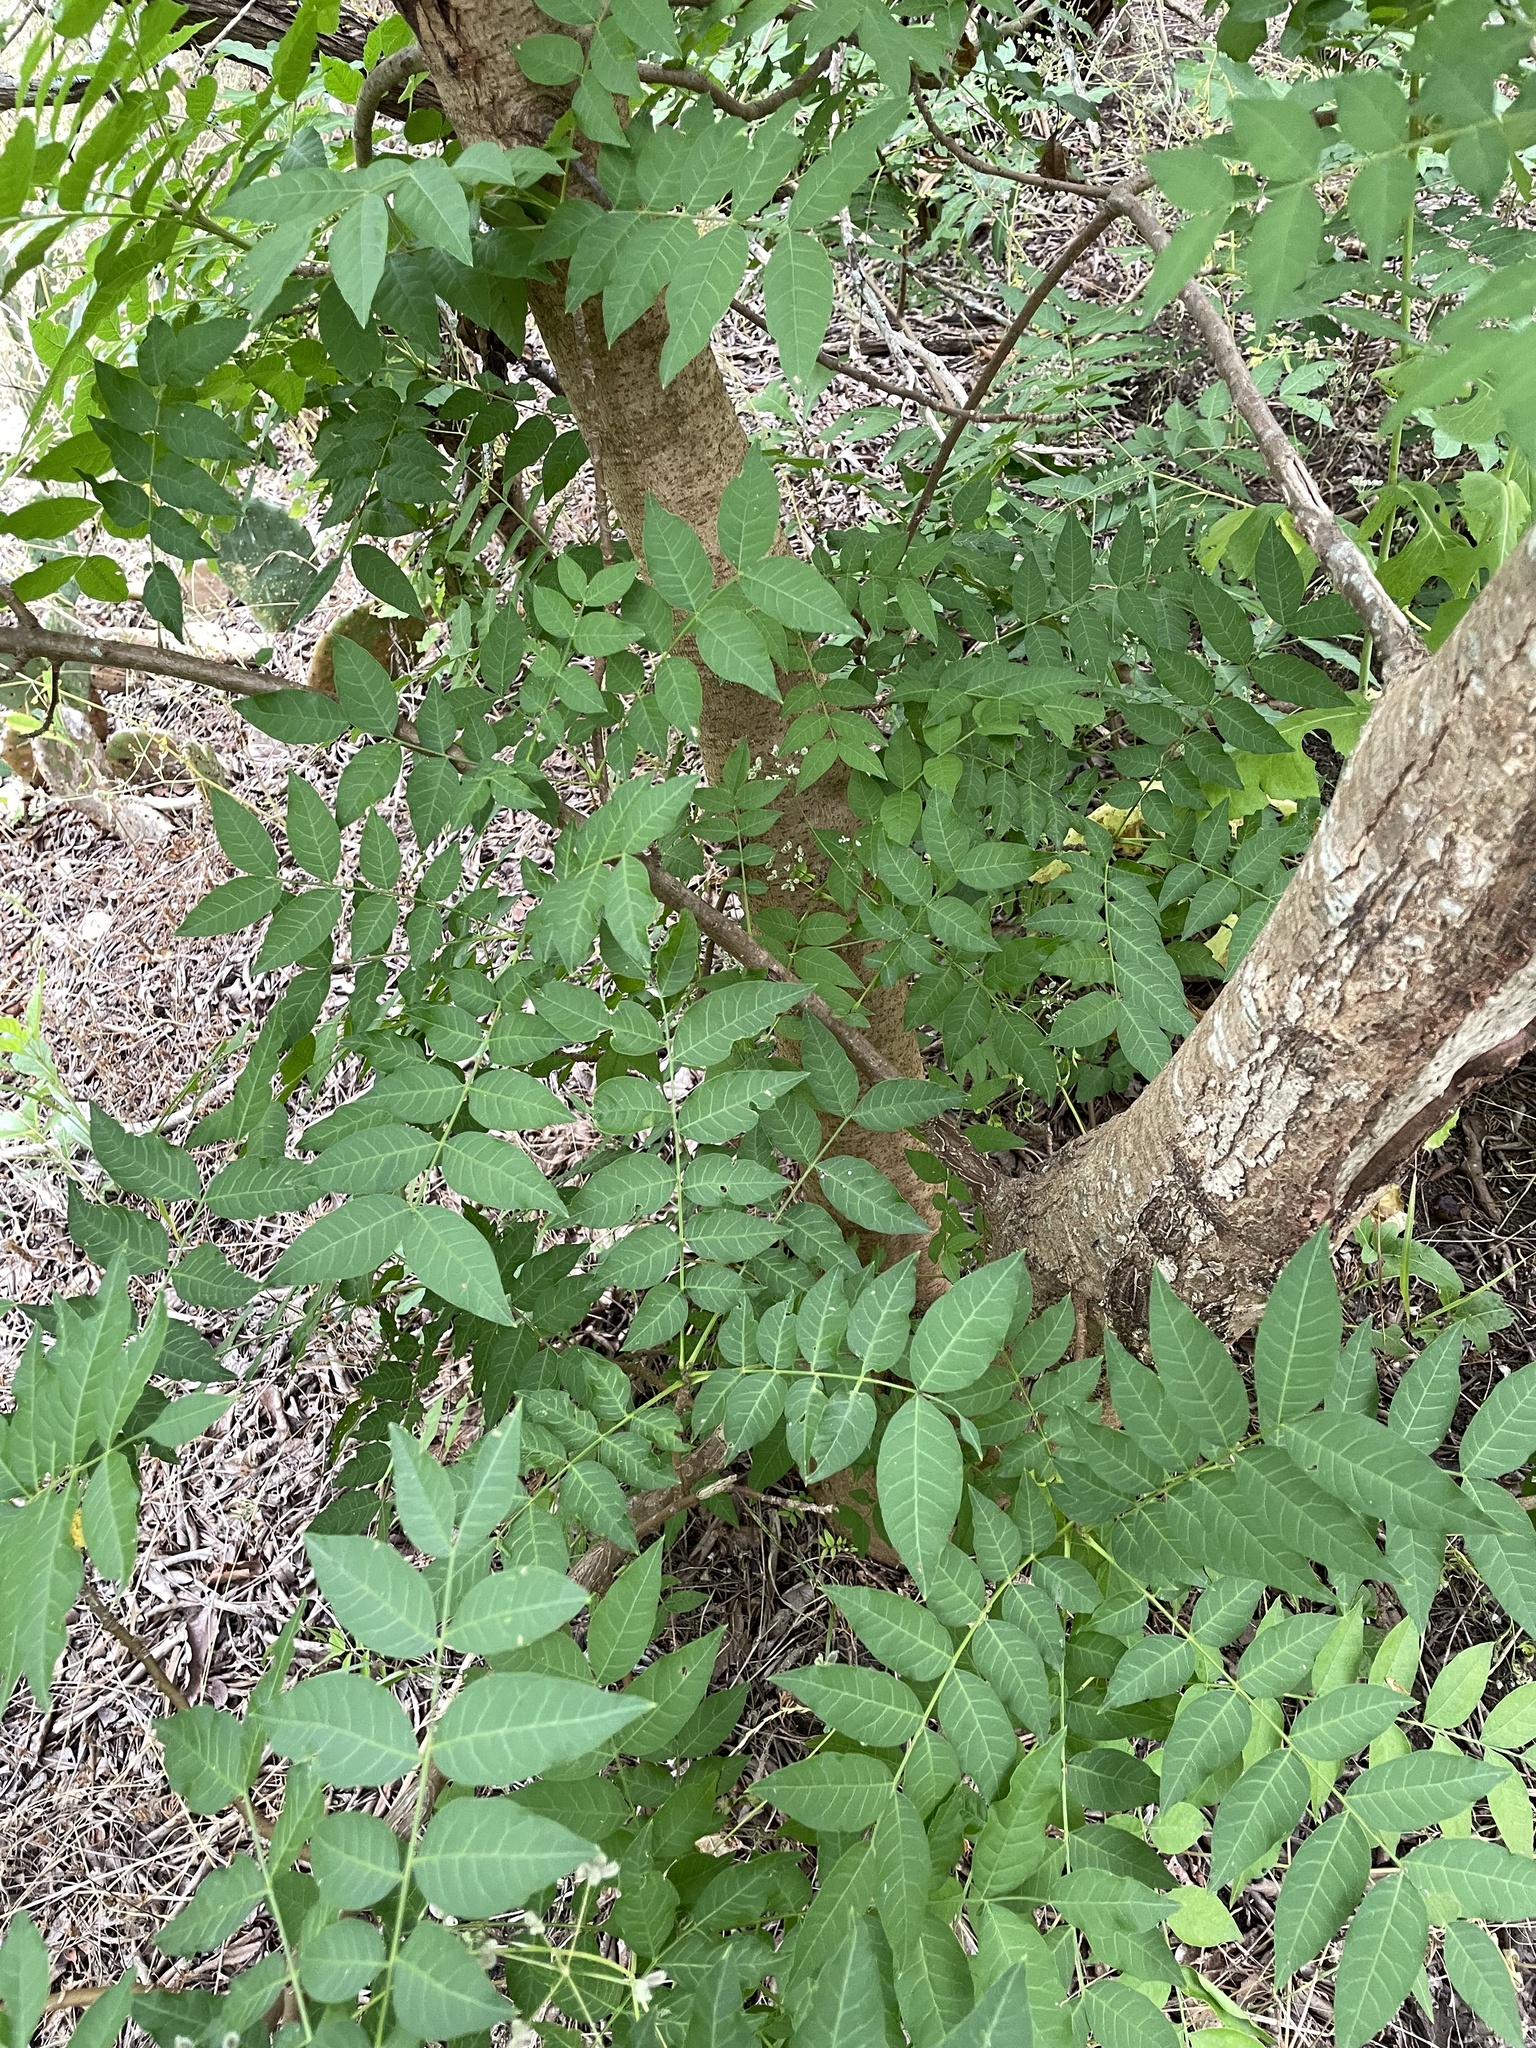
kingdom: Plantae
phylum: Tracheophyta
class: Magnoliopsida
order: Sapindales
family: Anacardiaceae
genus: Pistacia
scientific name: Pistacia chinensis
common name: Chinese pistache
